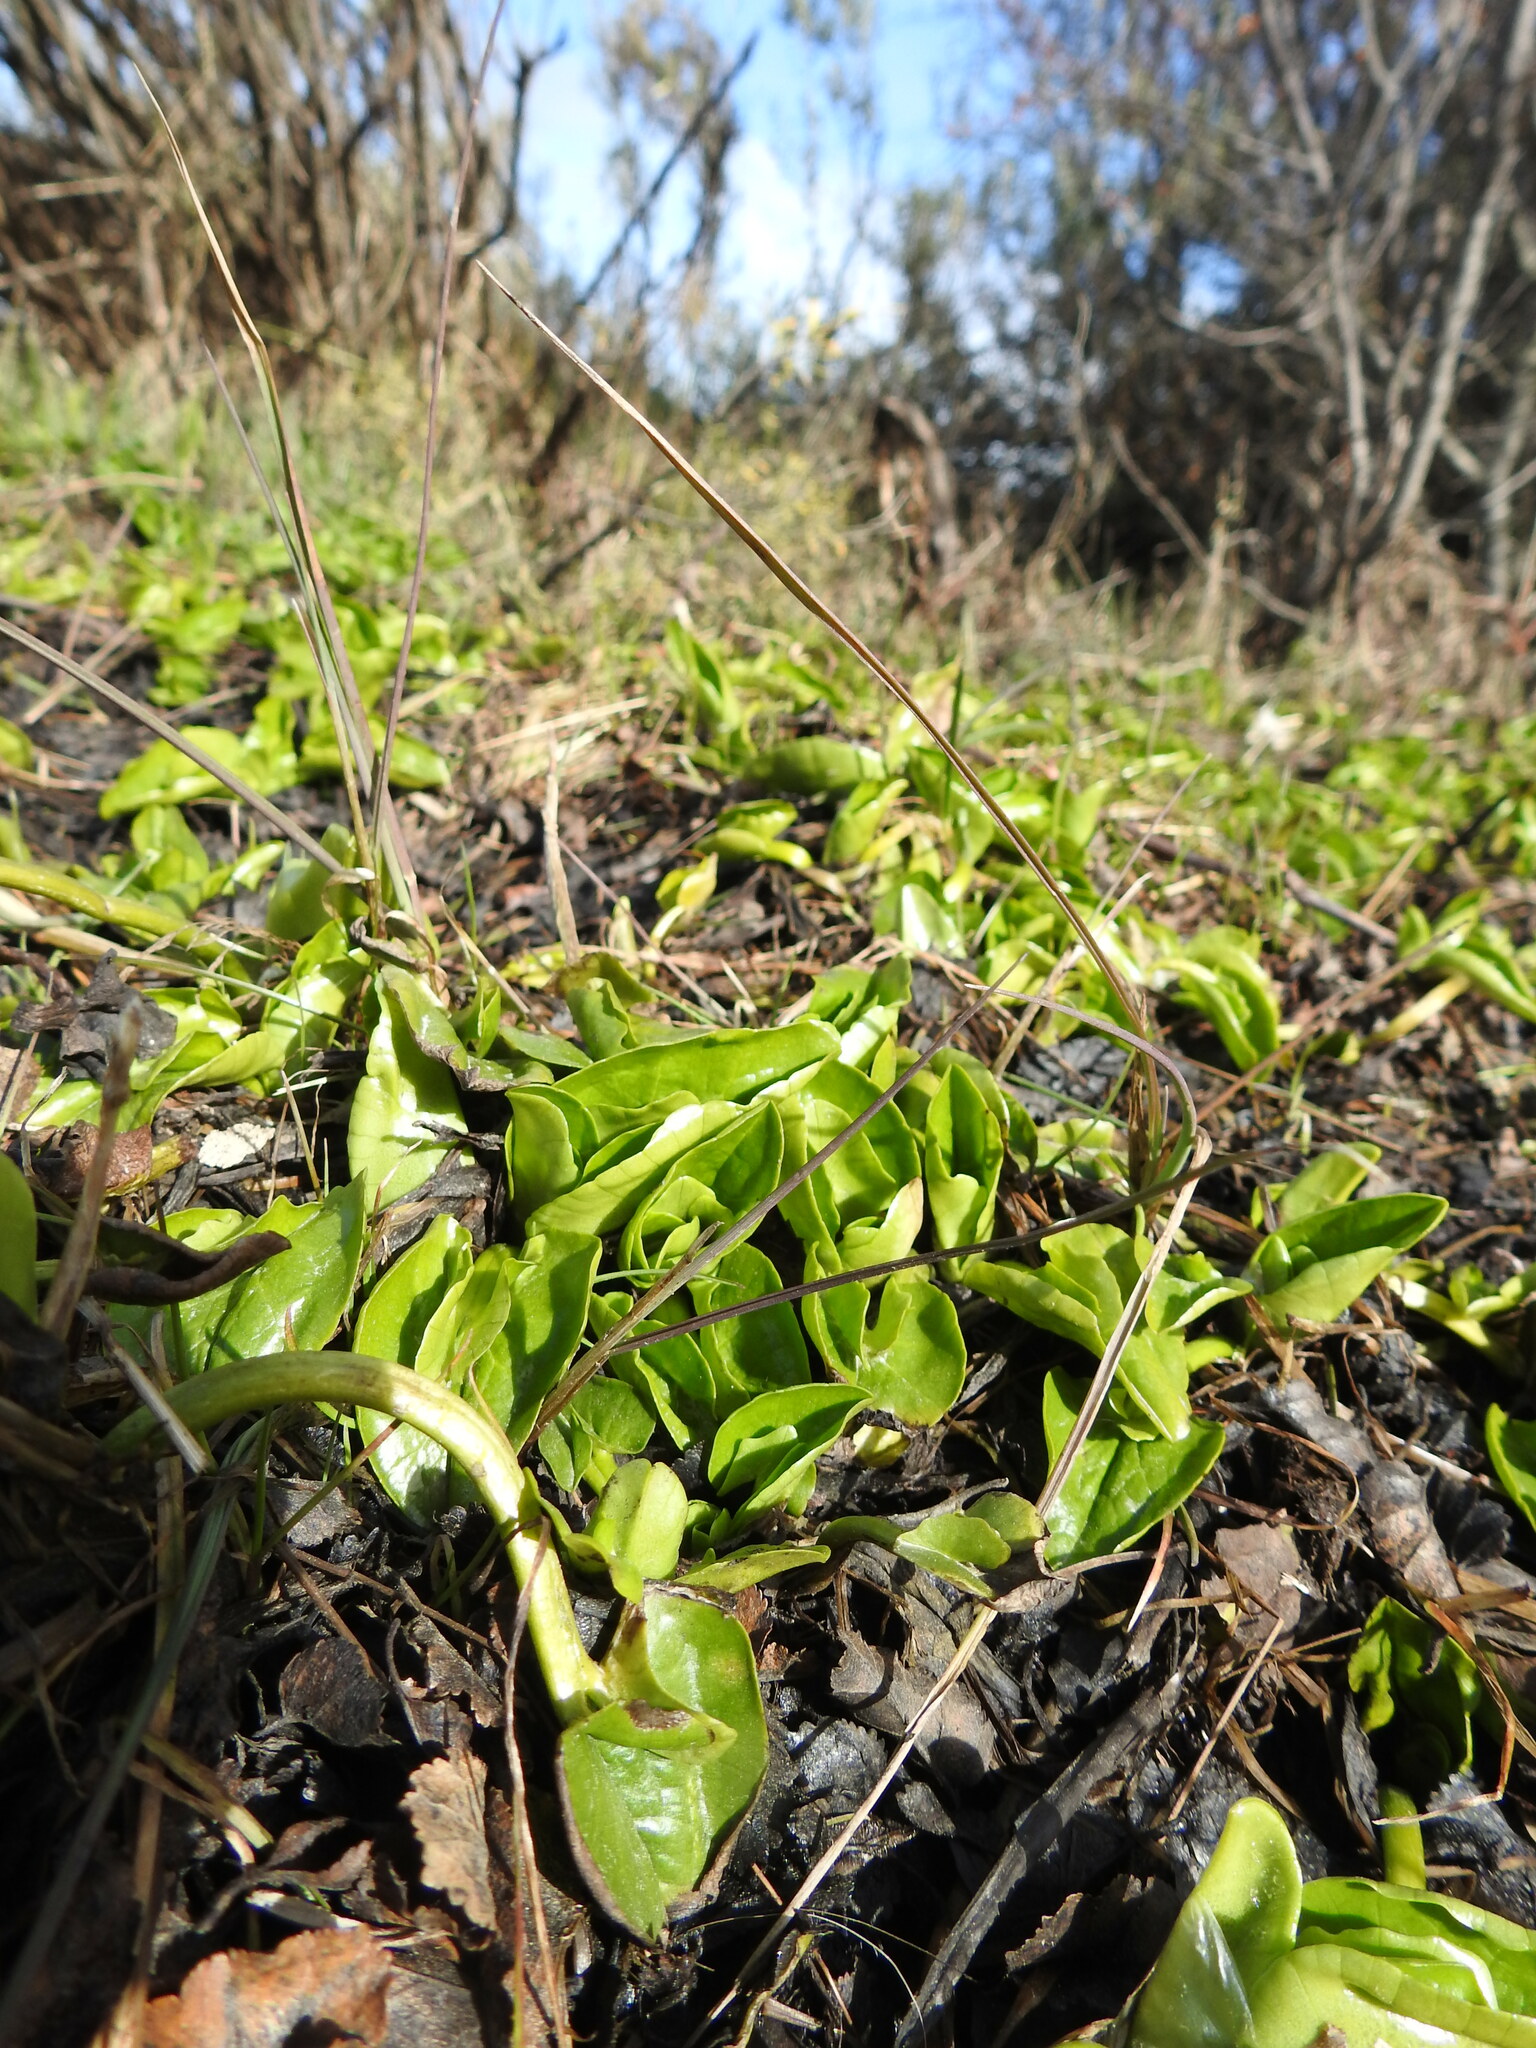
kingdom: Plantae
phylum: Tracheophyta
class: Magnoliopsida
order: Ranunculales
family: Ranunculaceae
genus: Caltha
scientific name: Caltha sagittata
